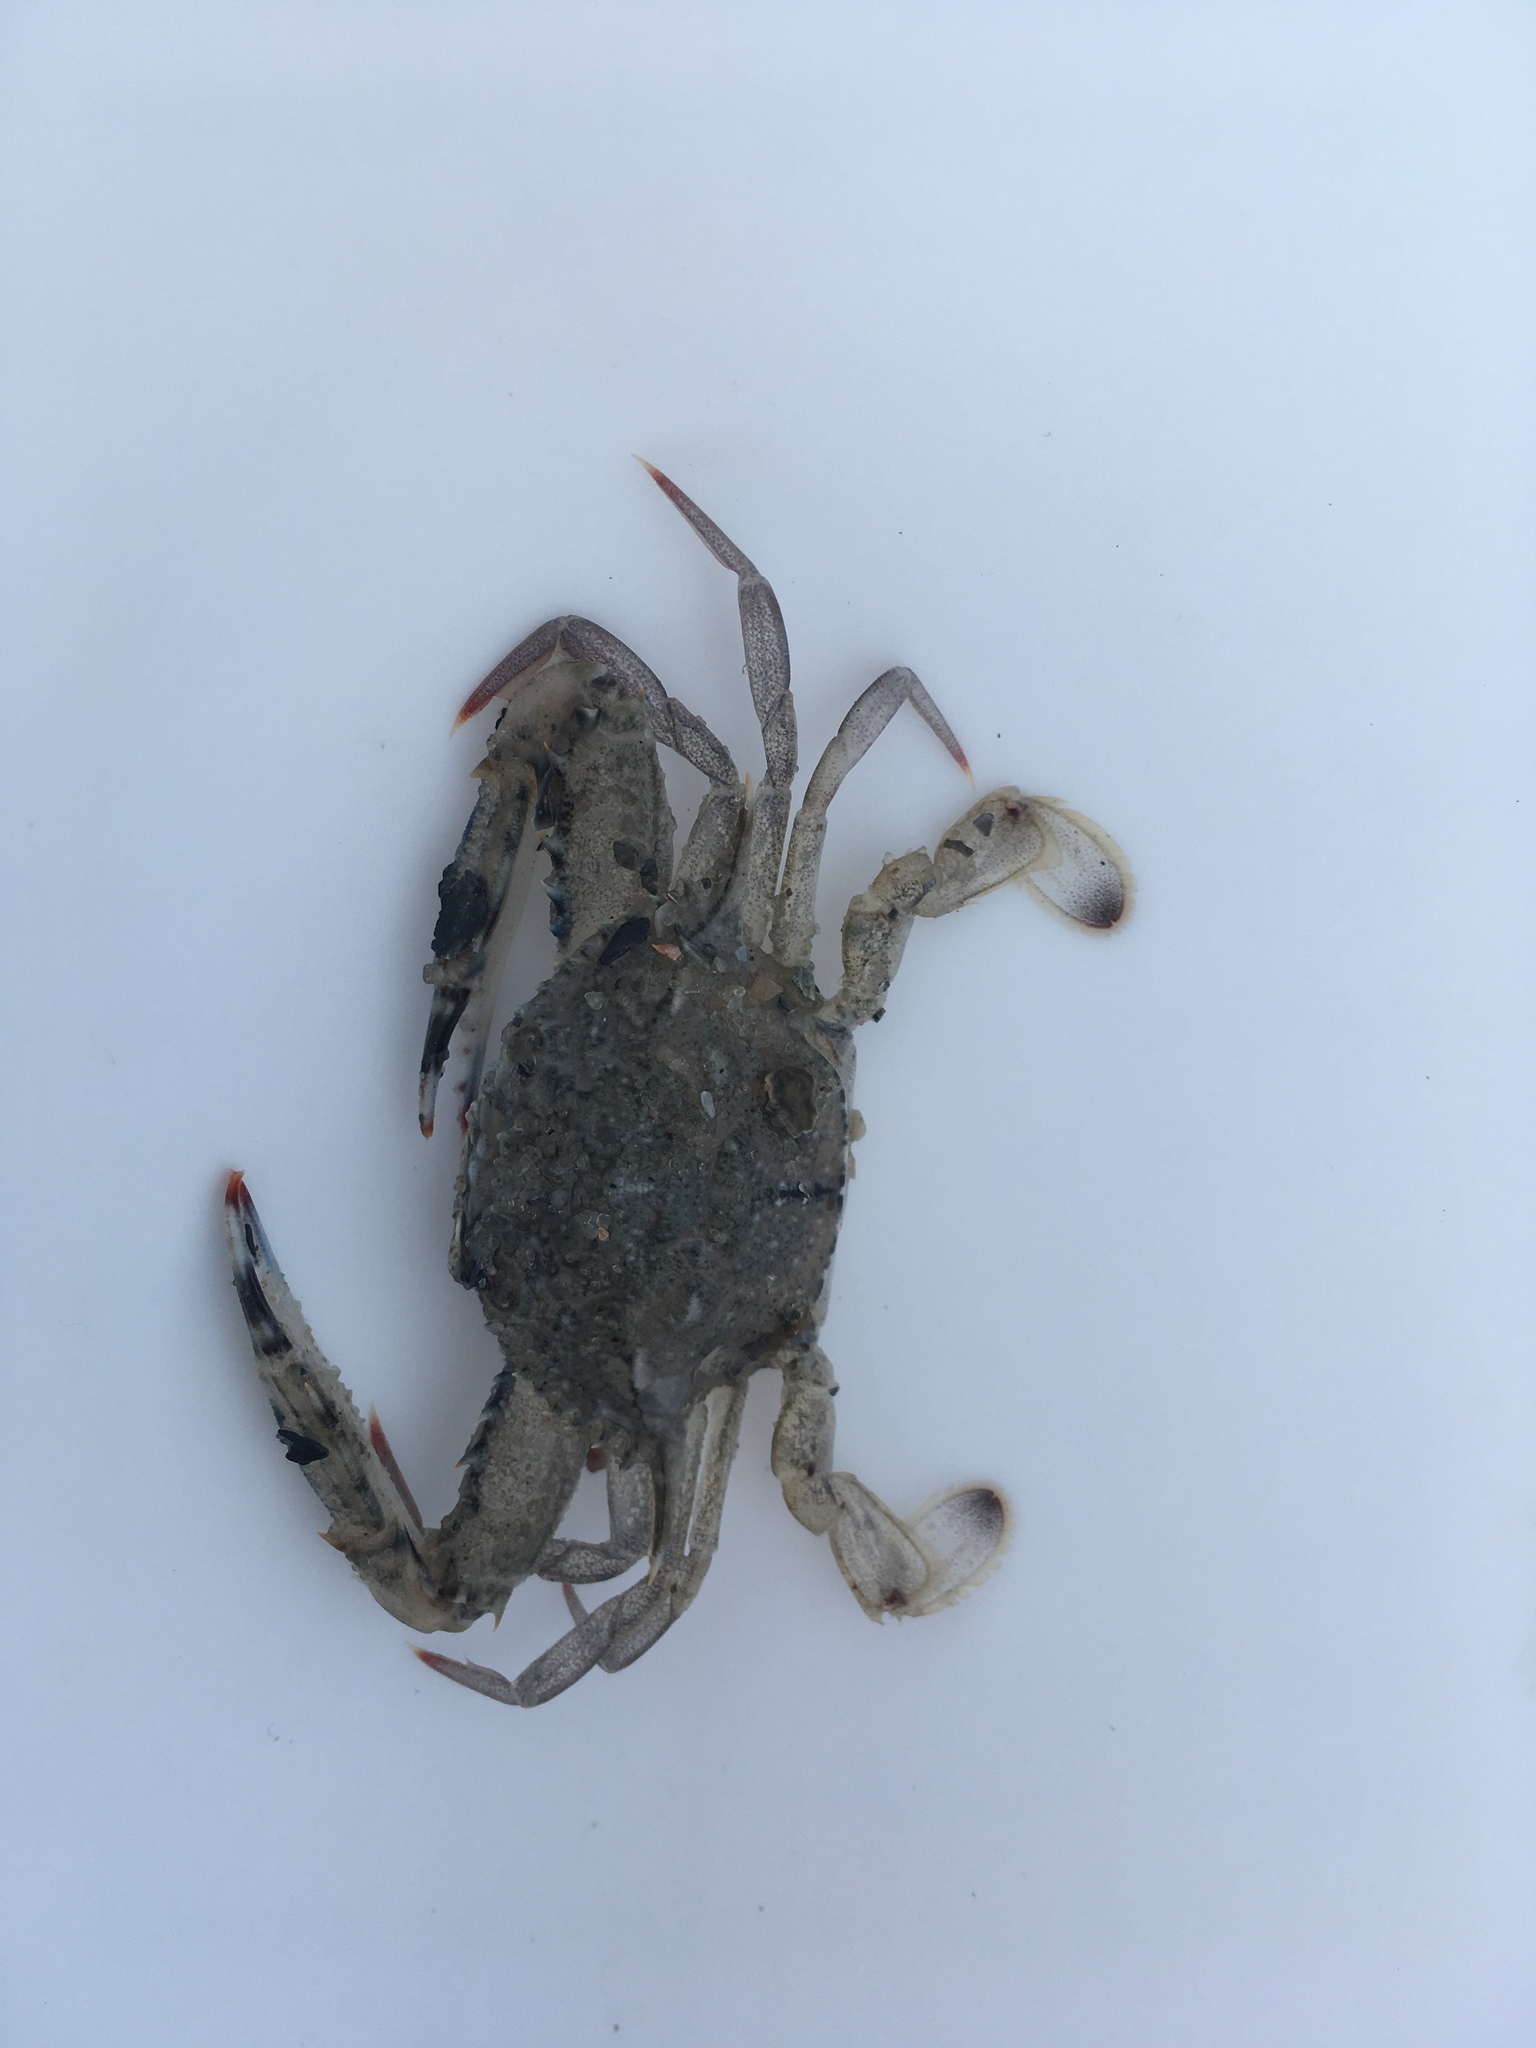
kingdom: Animalia
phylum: Arthropoda
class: Malacostraca
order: Decapoda
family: Portunidae
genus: Achelous
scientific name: Achelous gibbesii
